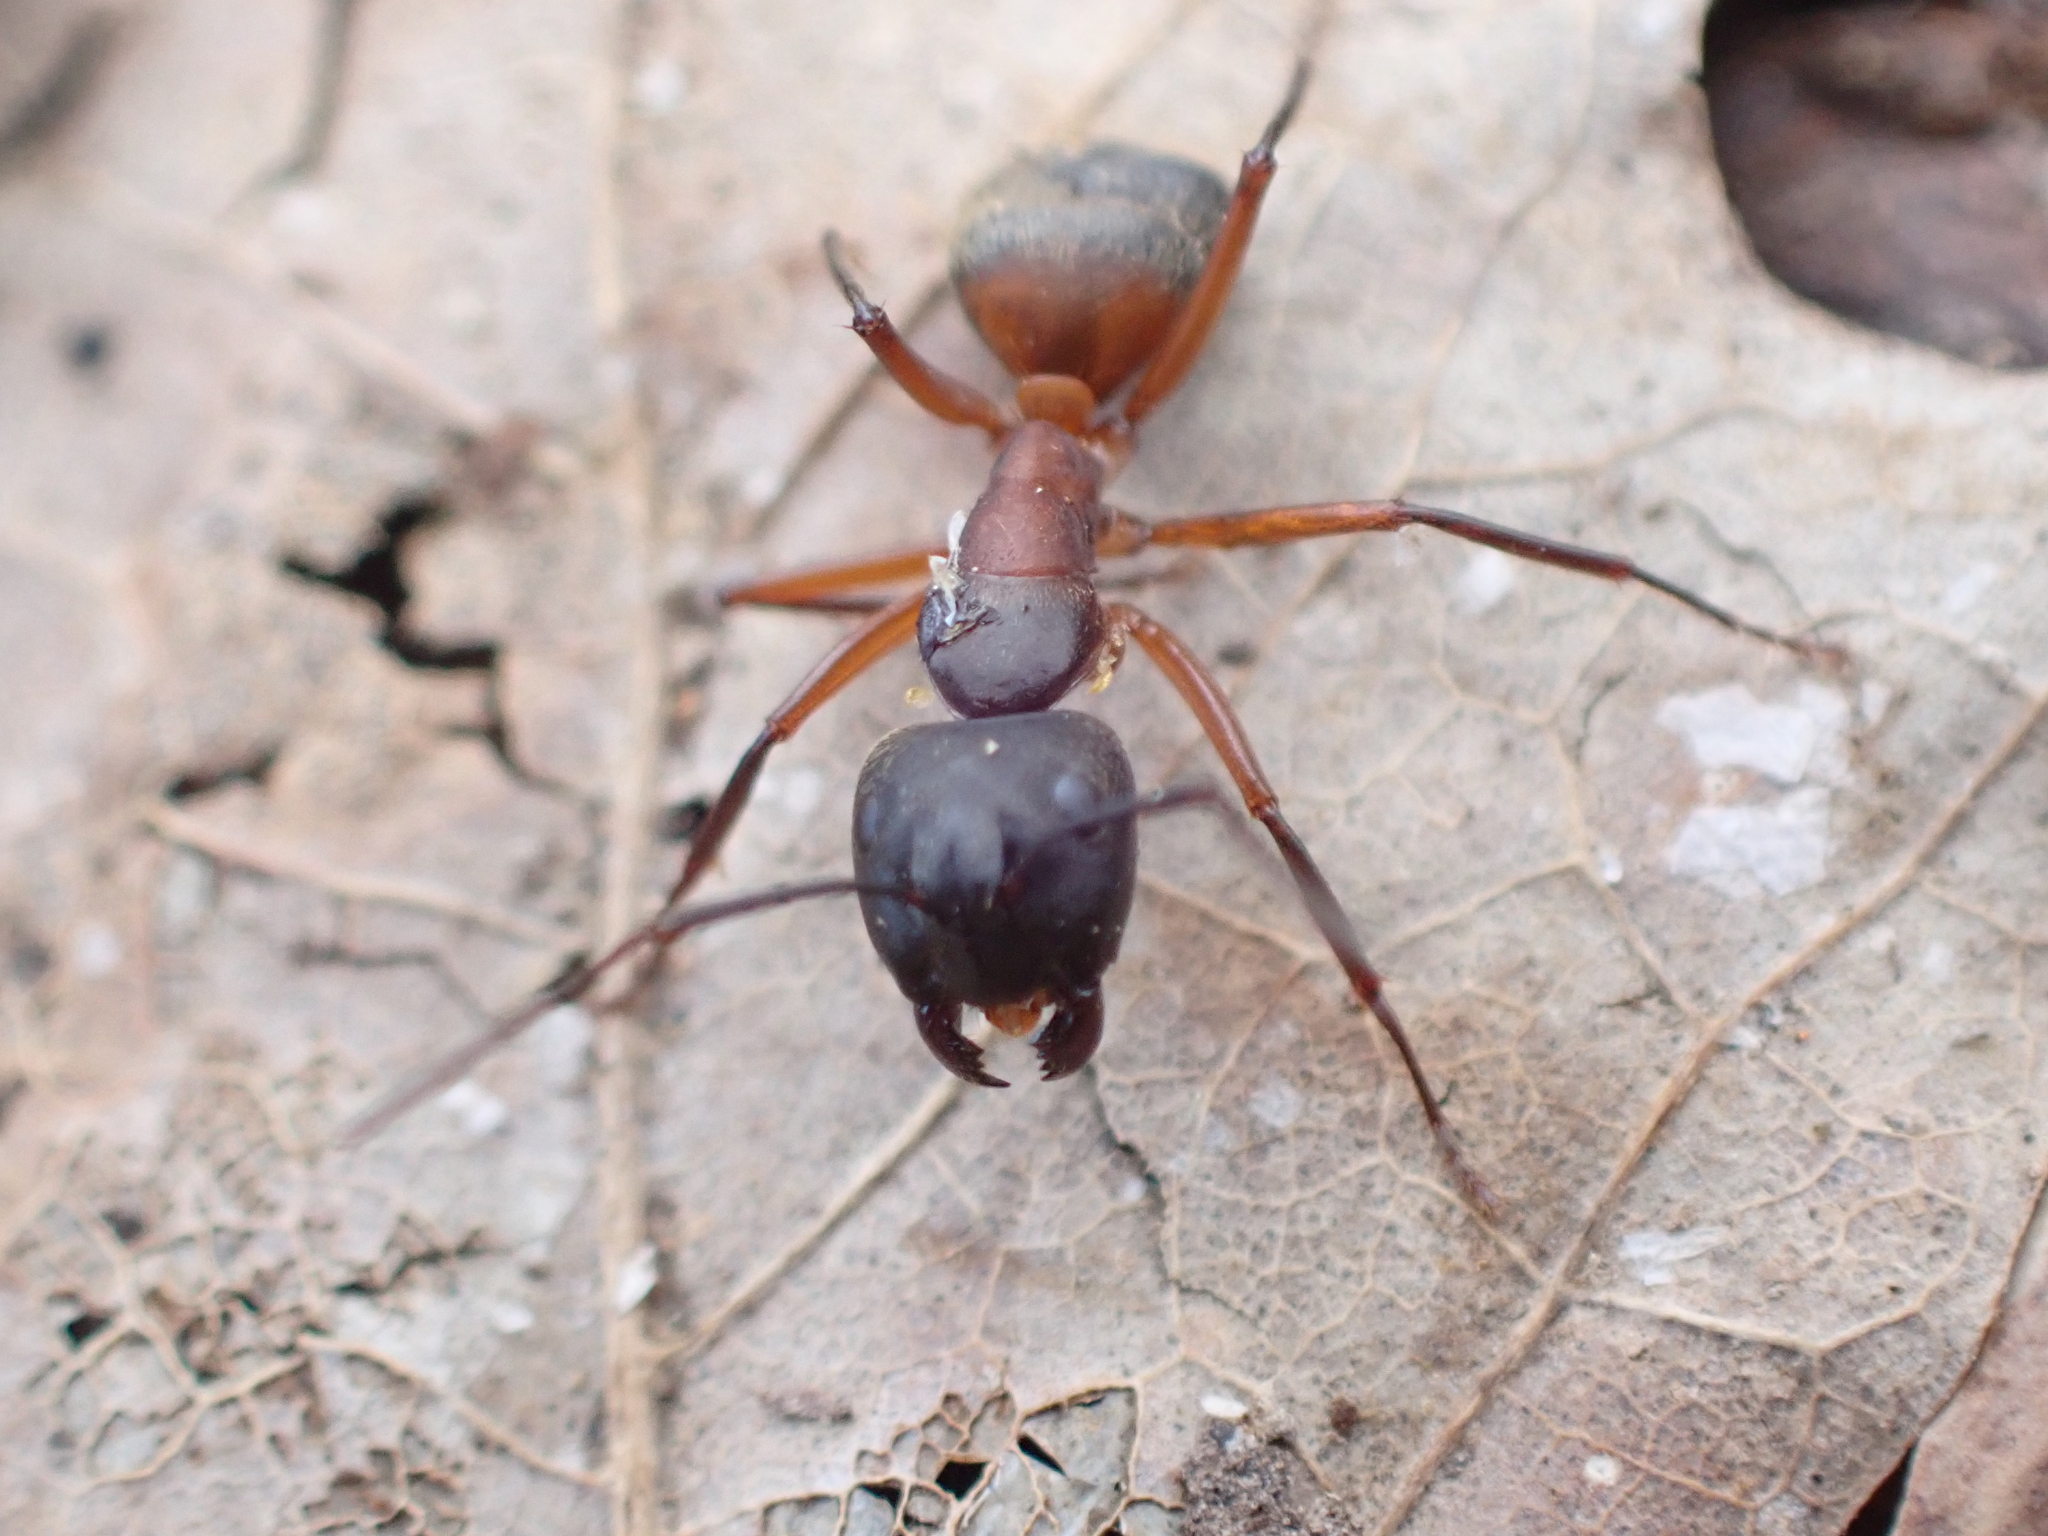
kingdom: Animalia
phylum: Arthropoda
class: Insecta
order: Hymenoptera
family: Formicidae
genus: Camponotus
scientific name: Camponotus chromaiodes
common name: Red carpenter ant
